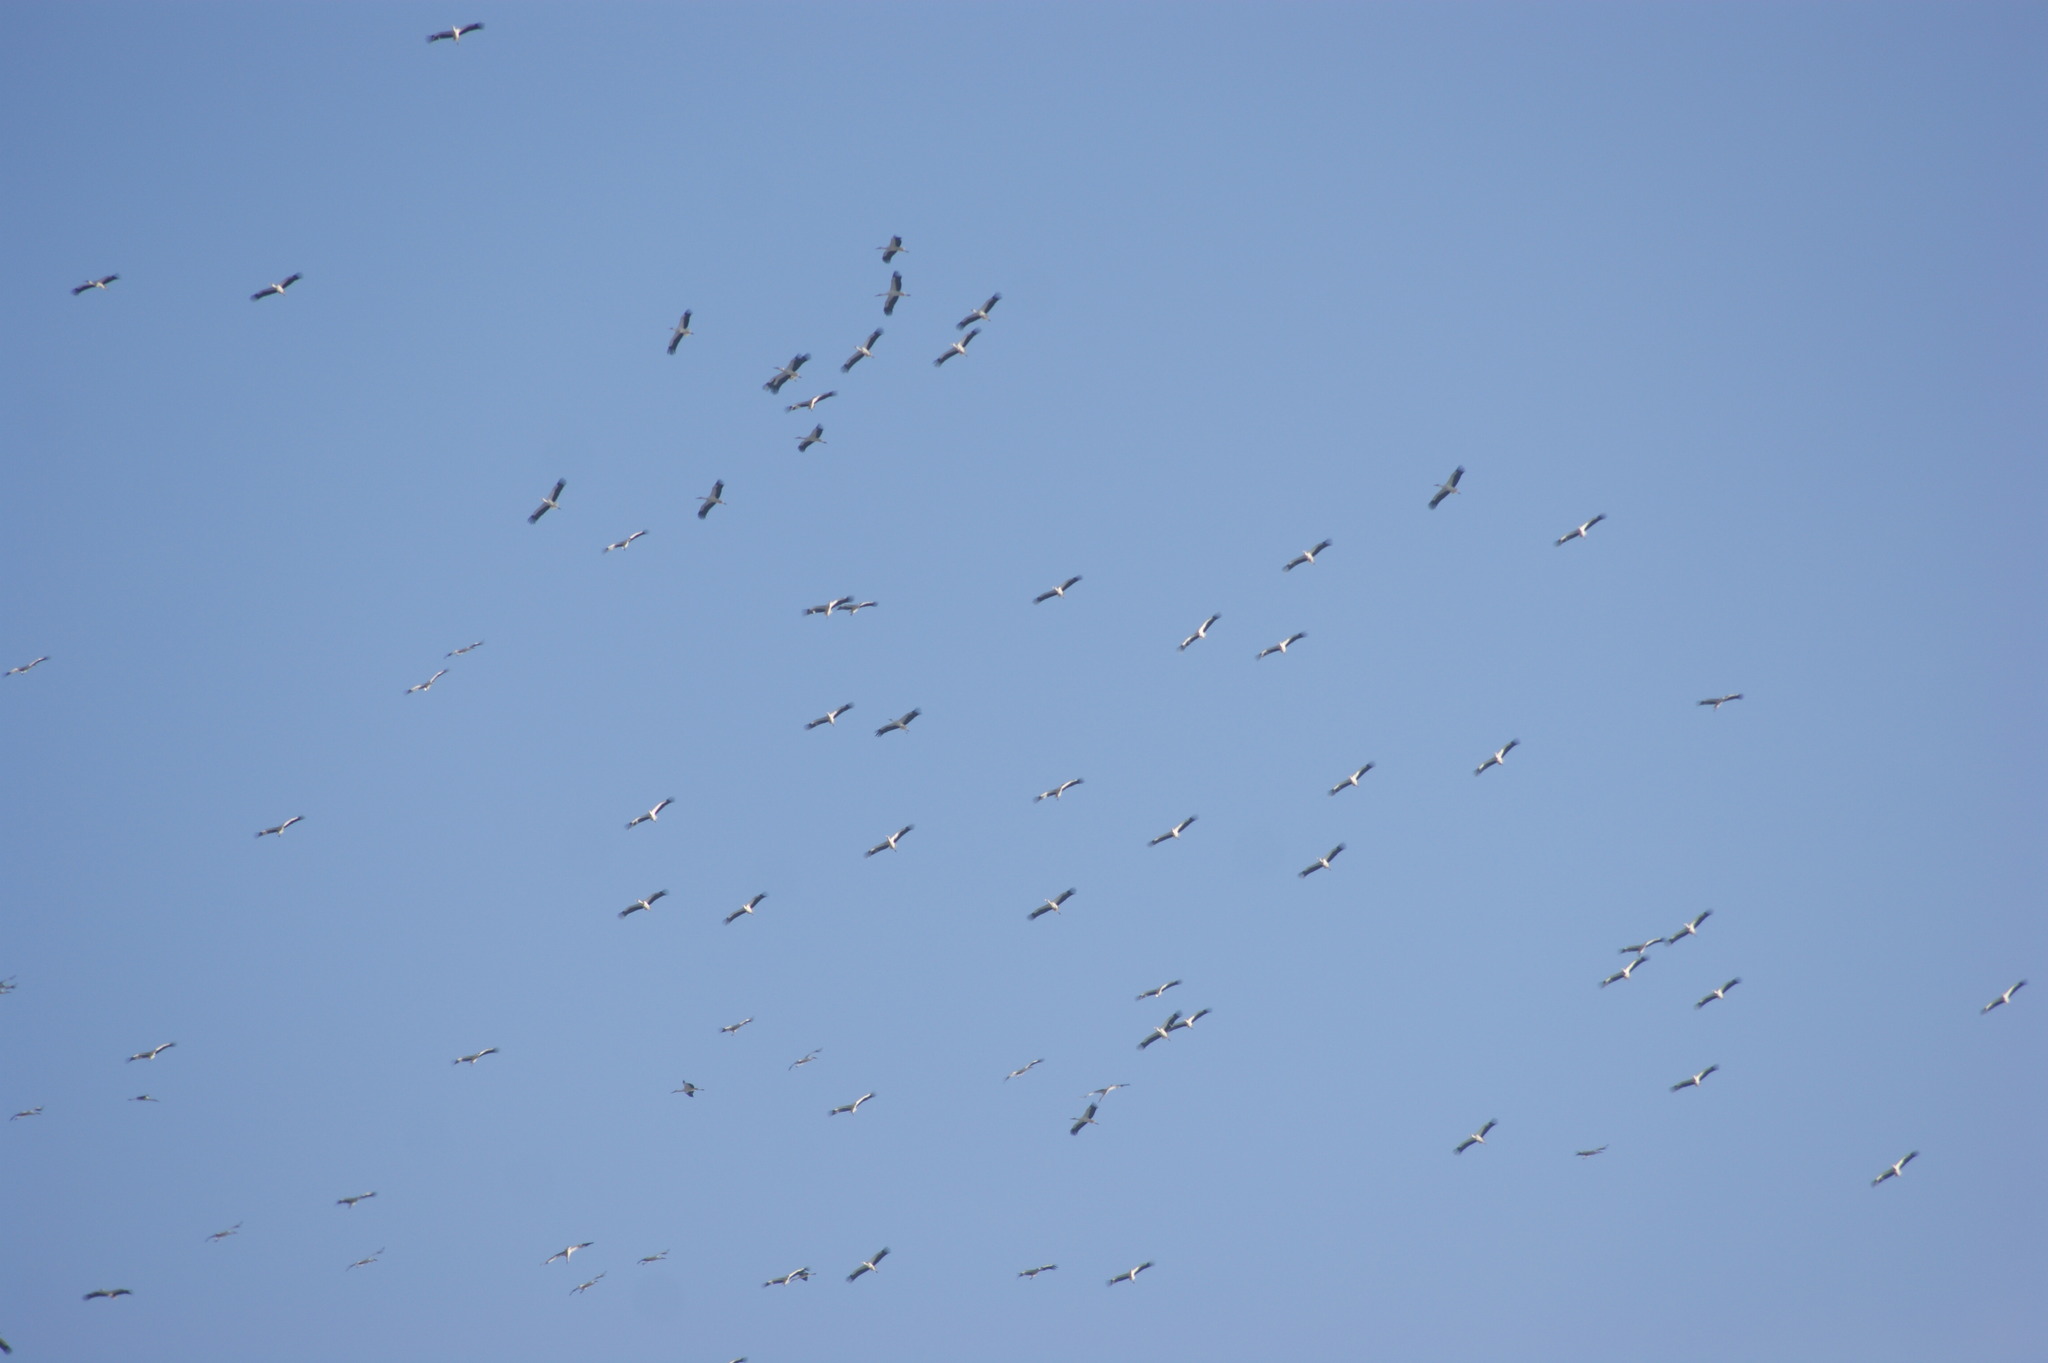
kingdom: Animalia
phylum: Chordata
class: Aves
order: Ciconiiformes
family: Ciconiidae
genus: Ciconia
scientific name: Ciconia ciconia
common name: White stork
